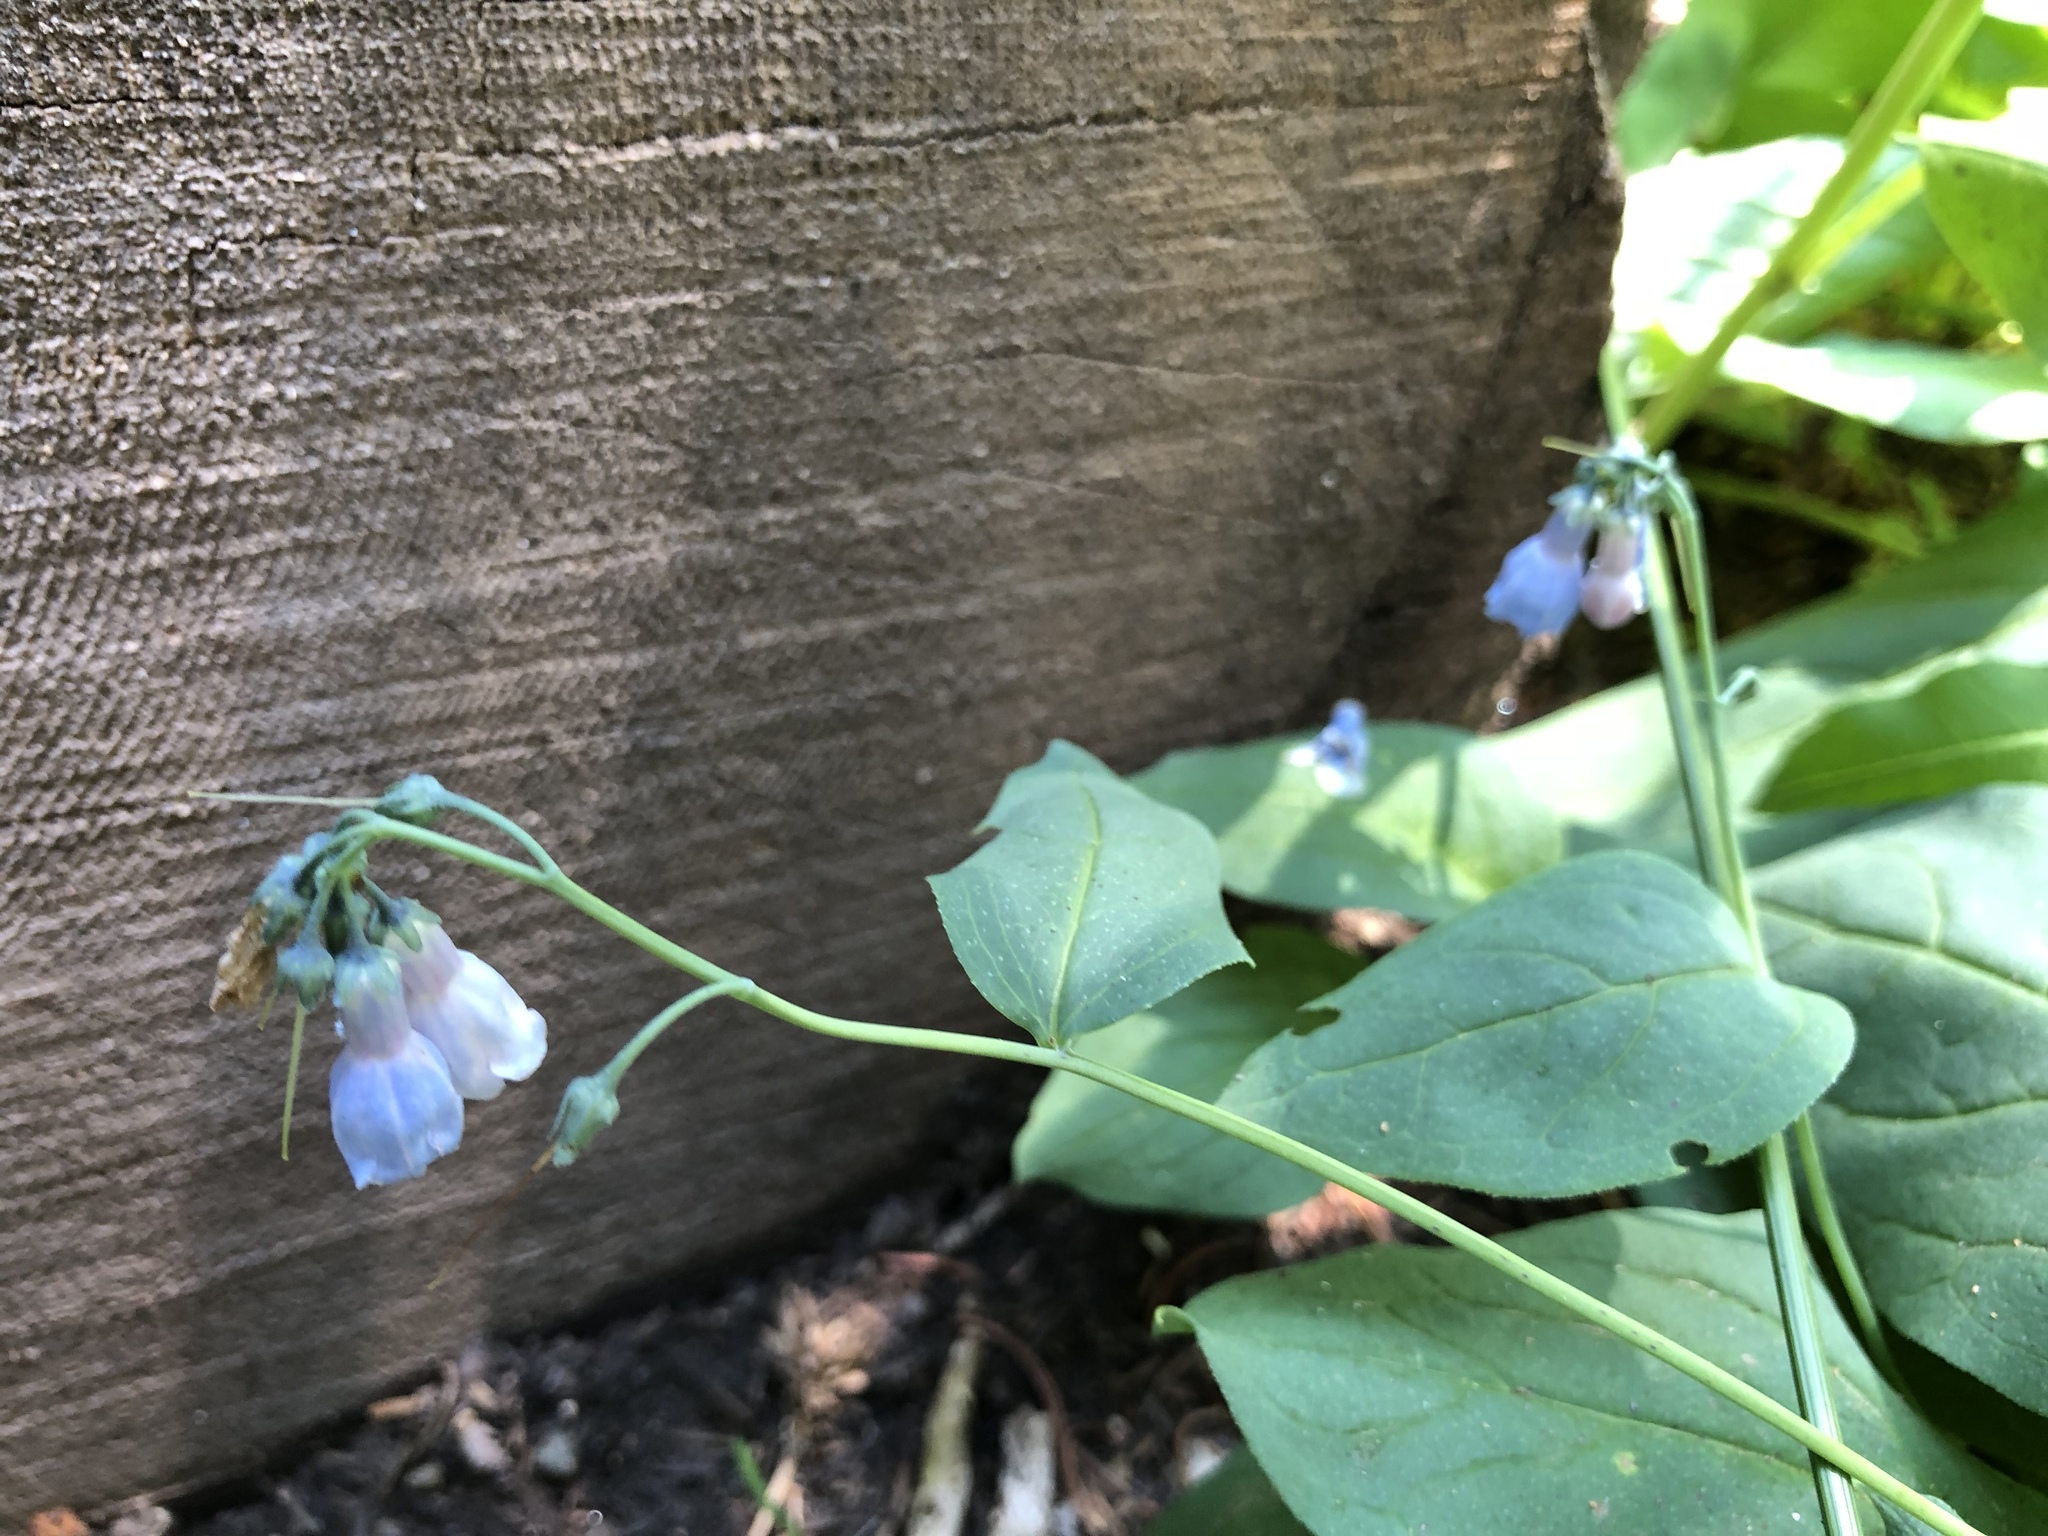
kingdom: Plantae
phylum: Tracheophyta
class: Magnoliopsida
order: Boraginales
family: Boraginaceae
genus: Mertensia
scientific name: Mertensia ciliata
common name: Tall chiming-bells
